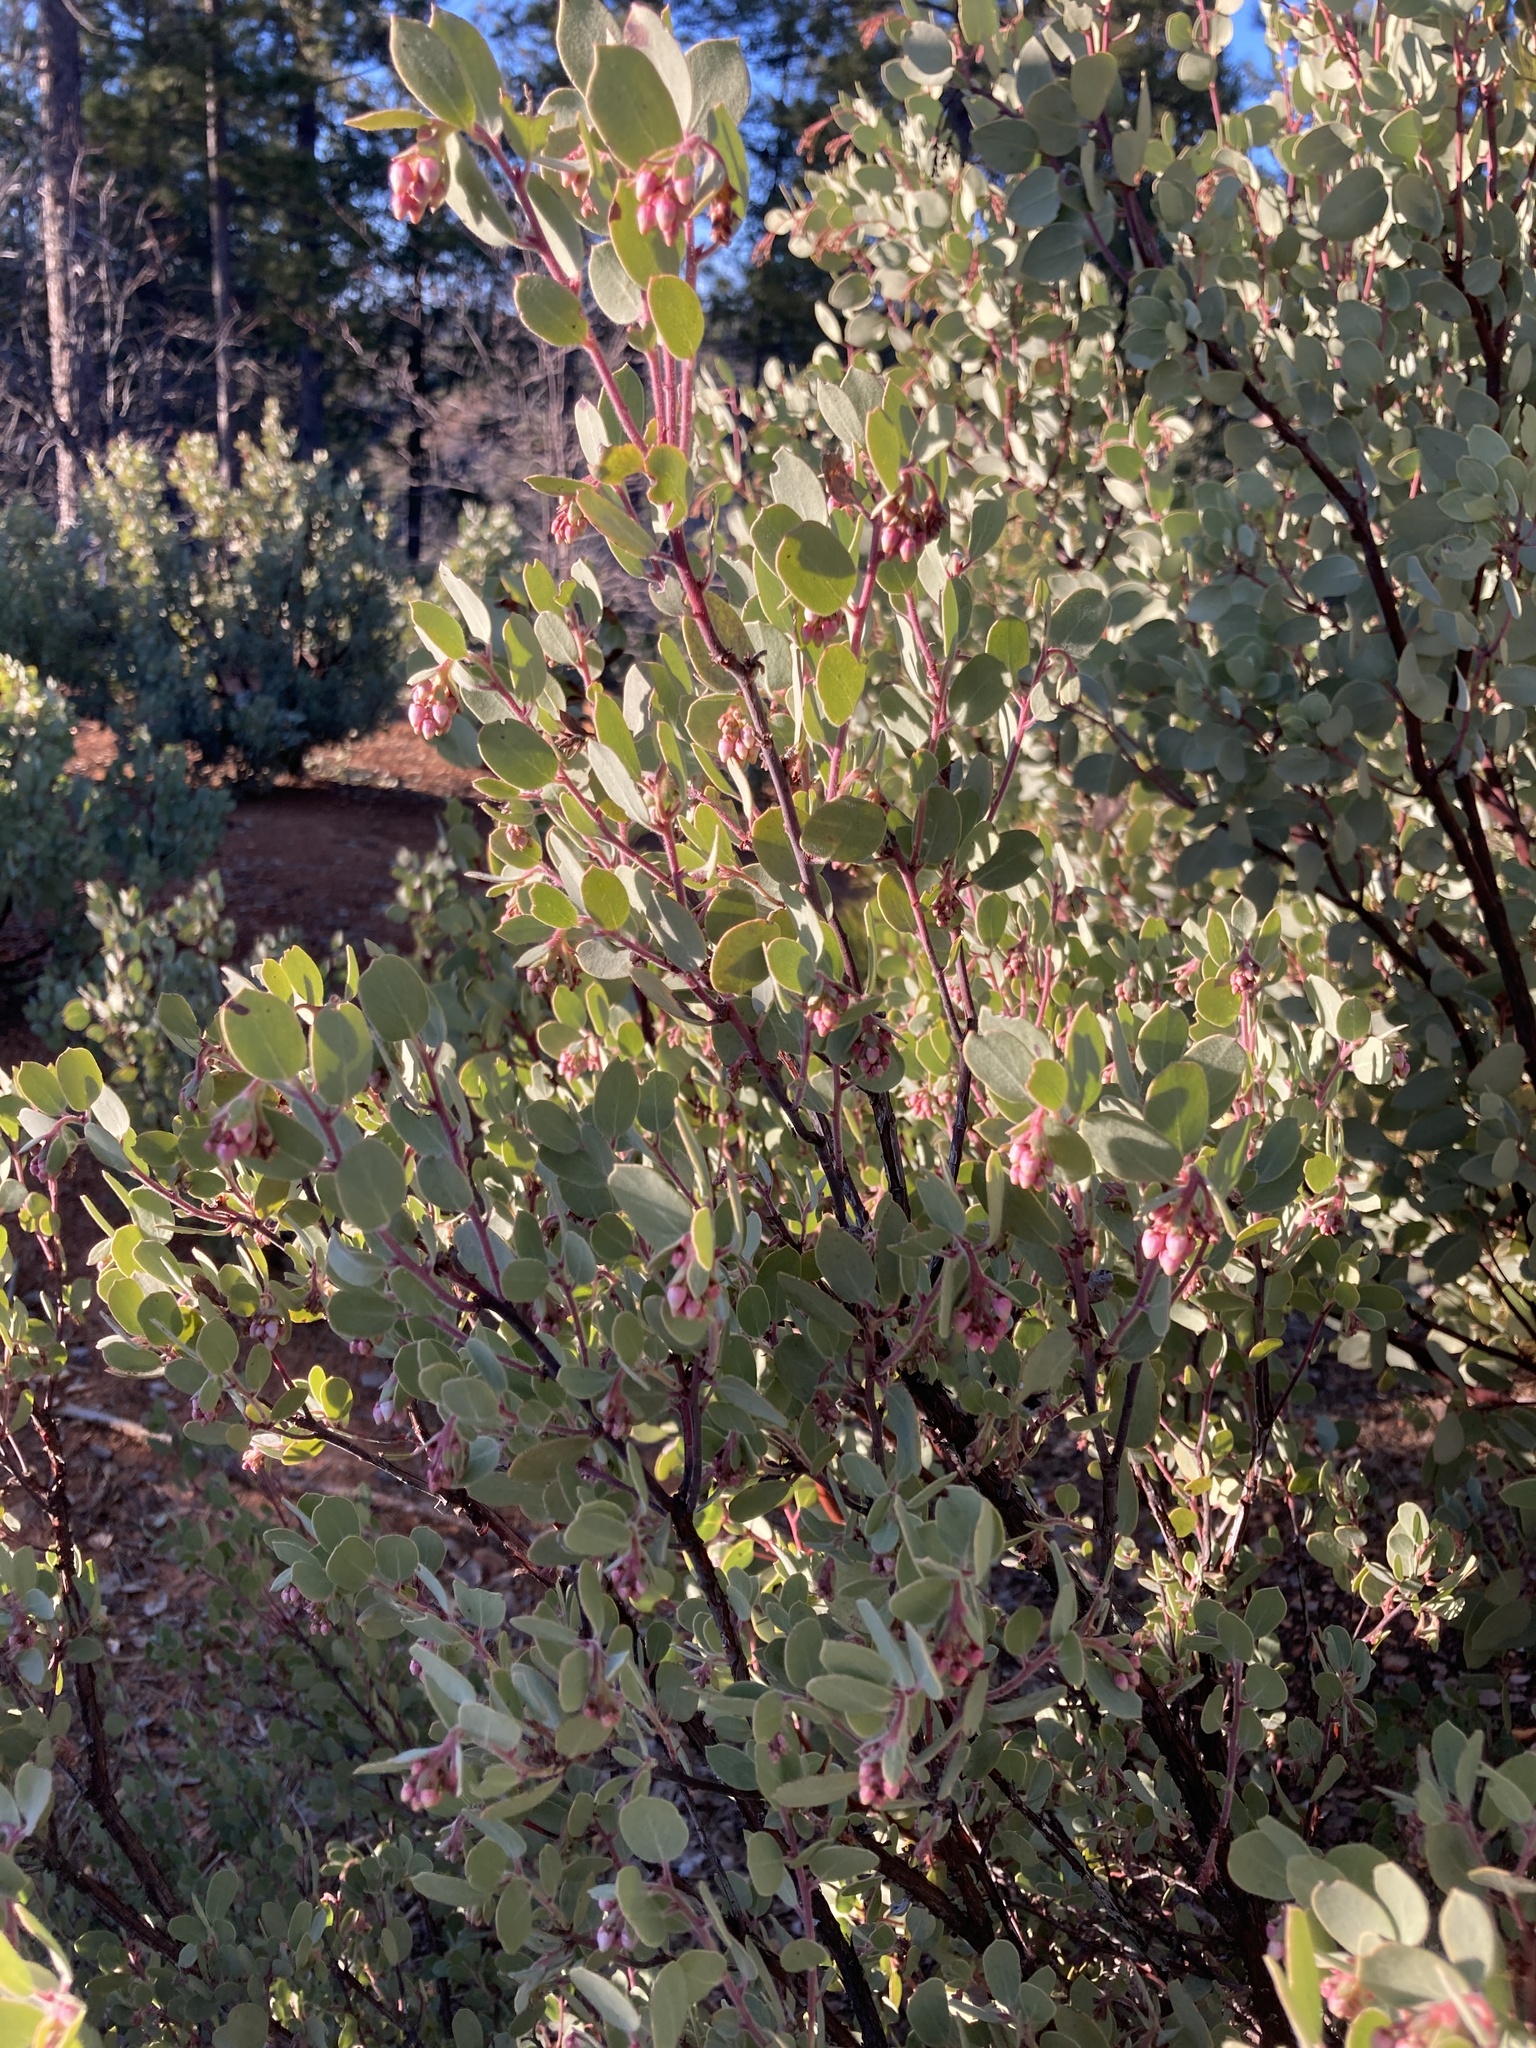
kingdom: Plantae
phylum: Tracheophyta
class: Magnoliopsida
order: Ericales
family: Ericaceae
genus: Arctostaphylos
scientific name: Arctostaphylos nissenana
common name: Nissenan manzanita
